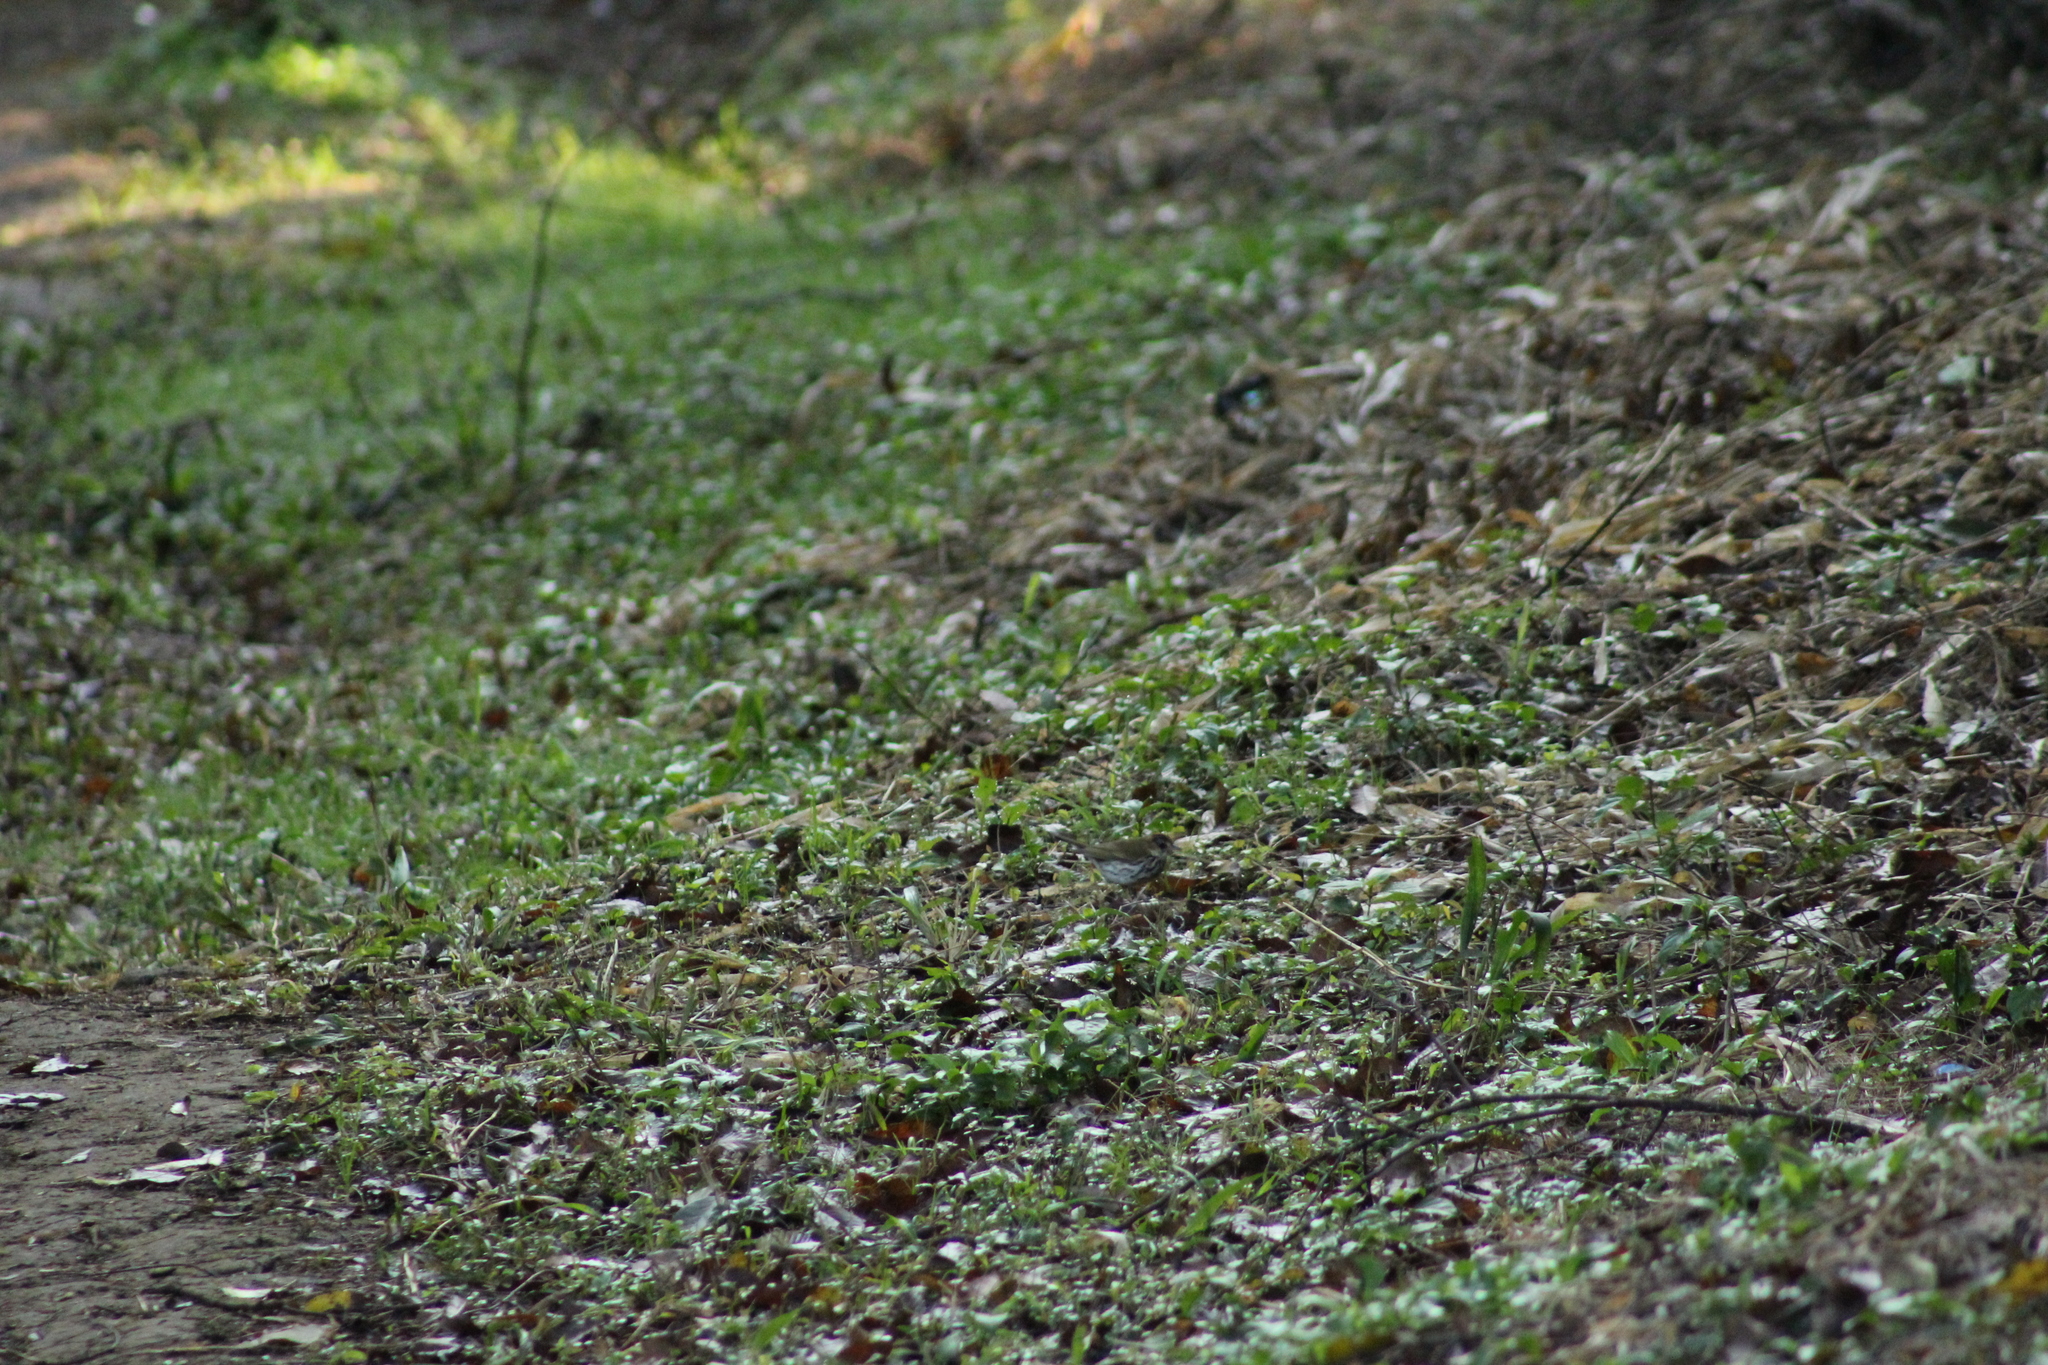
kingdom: Animalia
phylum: Chordata
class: Aves
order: Passeriformes
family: Parulidae
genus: Seiurus
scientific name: Seiurus aurocapilla
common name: Ovenbird
